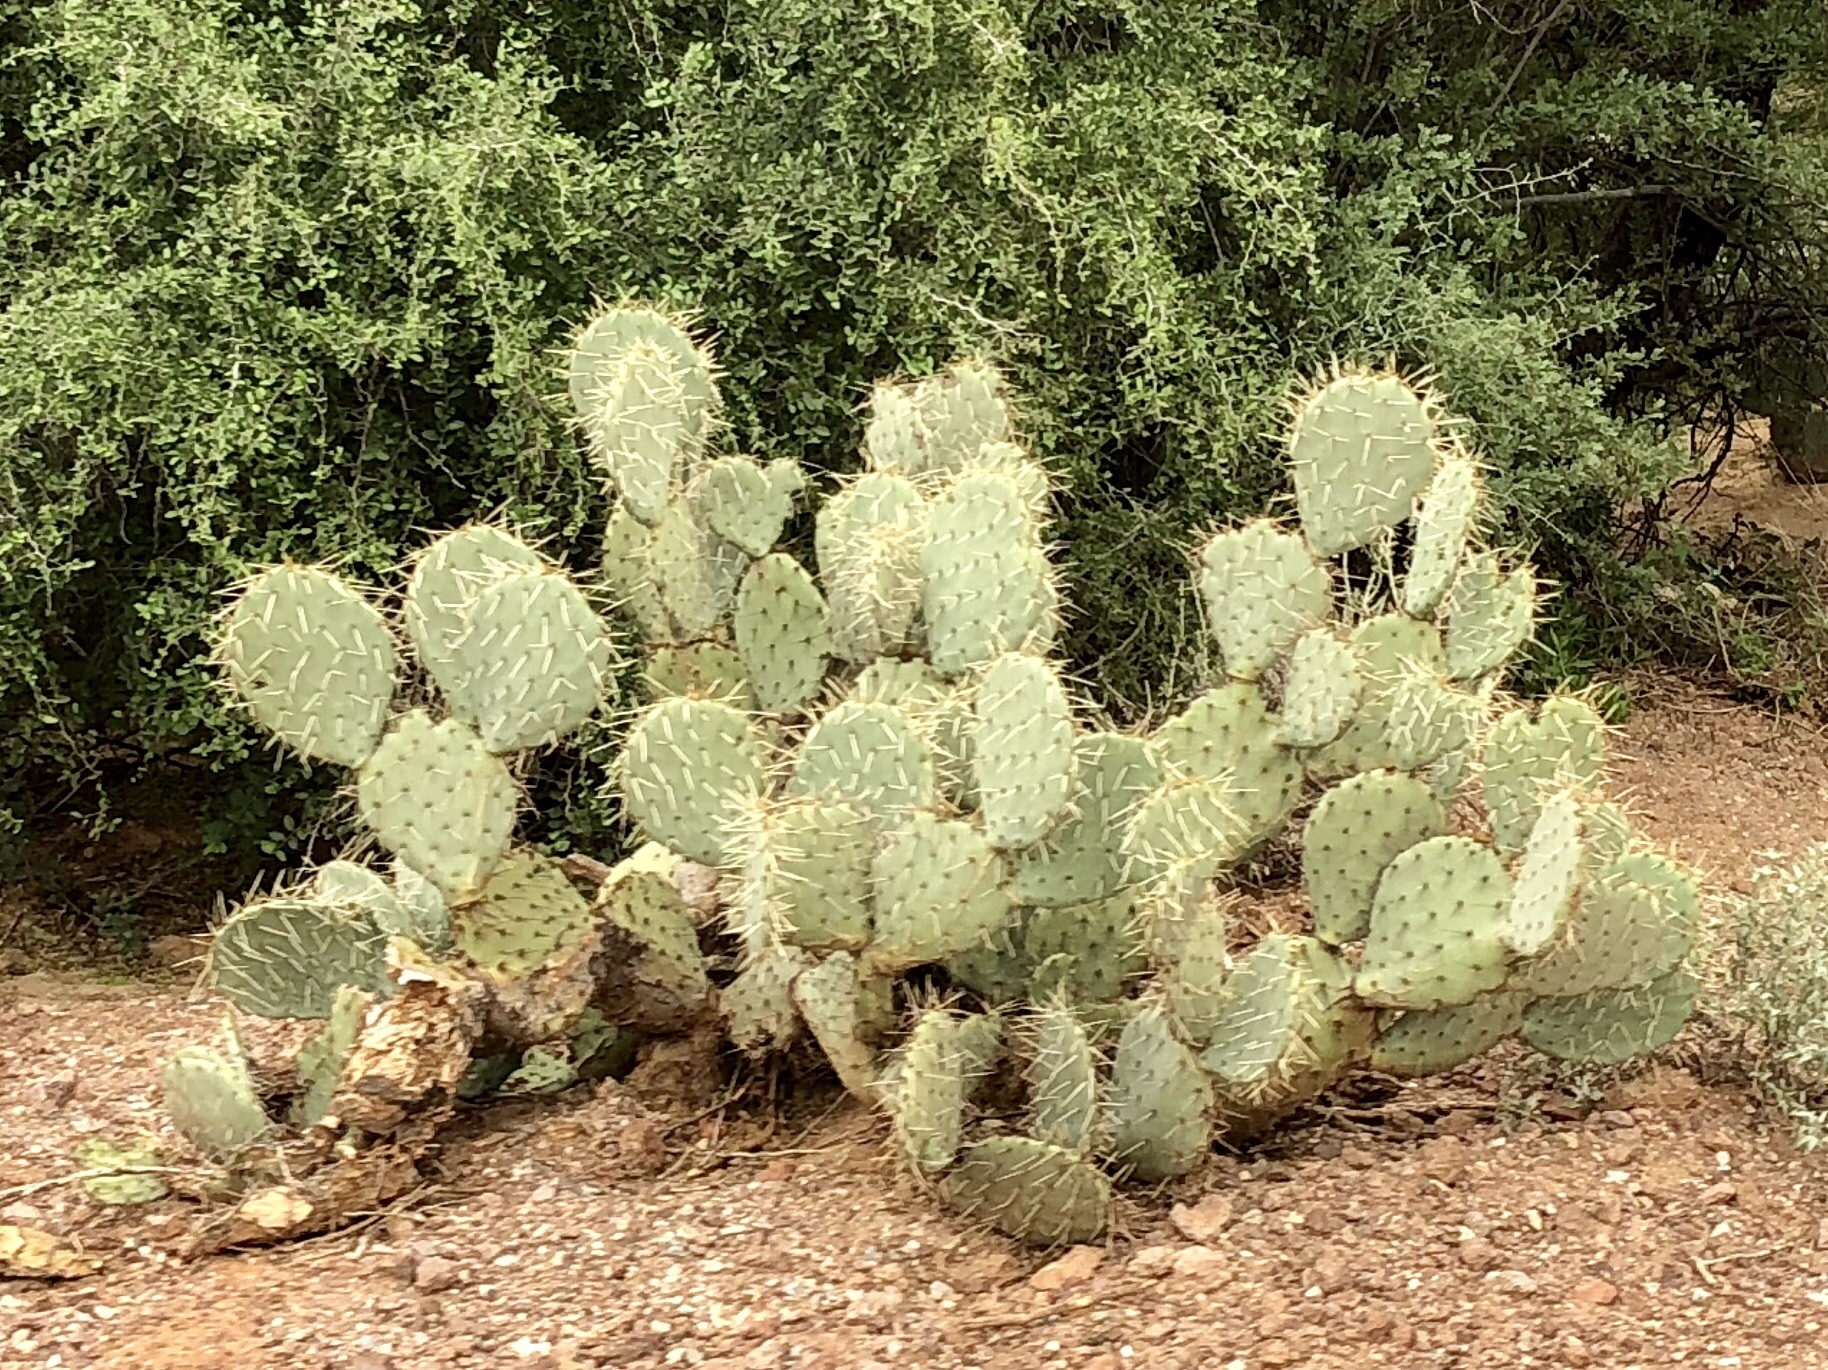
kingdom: Plantae
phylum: Tracheophyta
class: Magnoliopsida
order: Caryophyllales
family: Cactaceae
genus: Opuntia
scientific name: Opuntia engelmannii
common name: Cactus-apple
